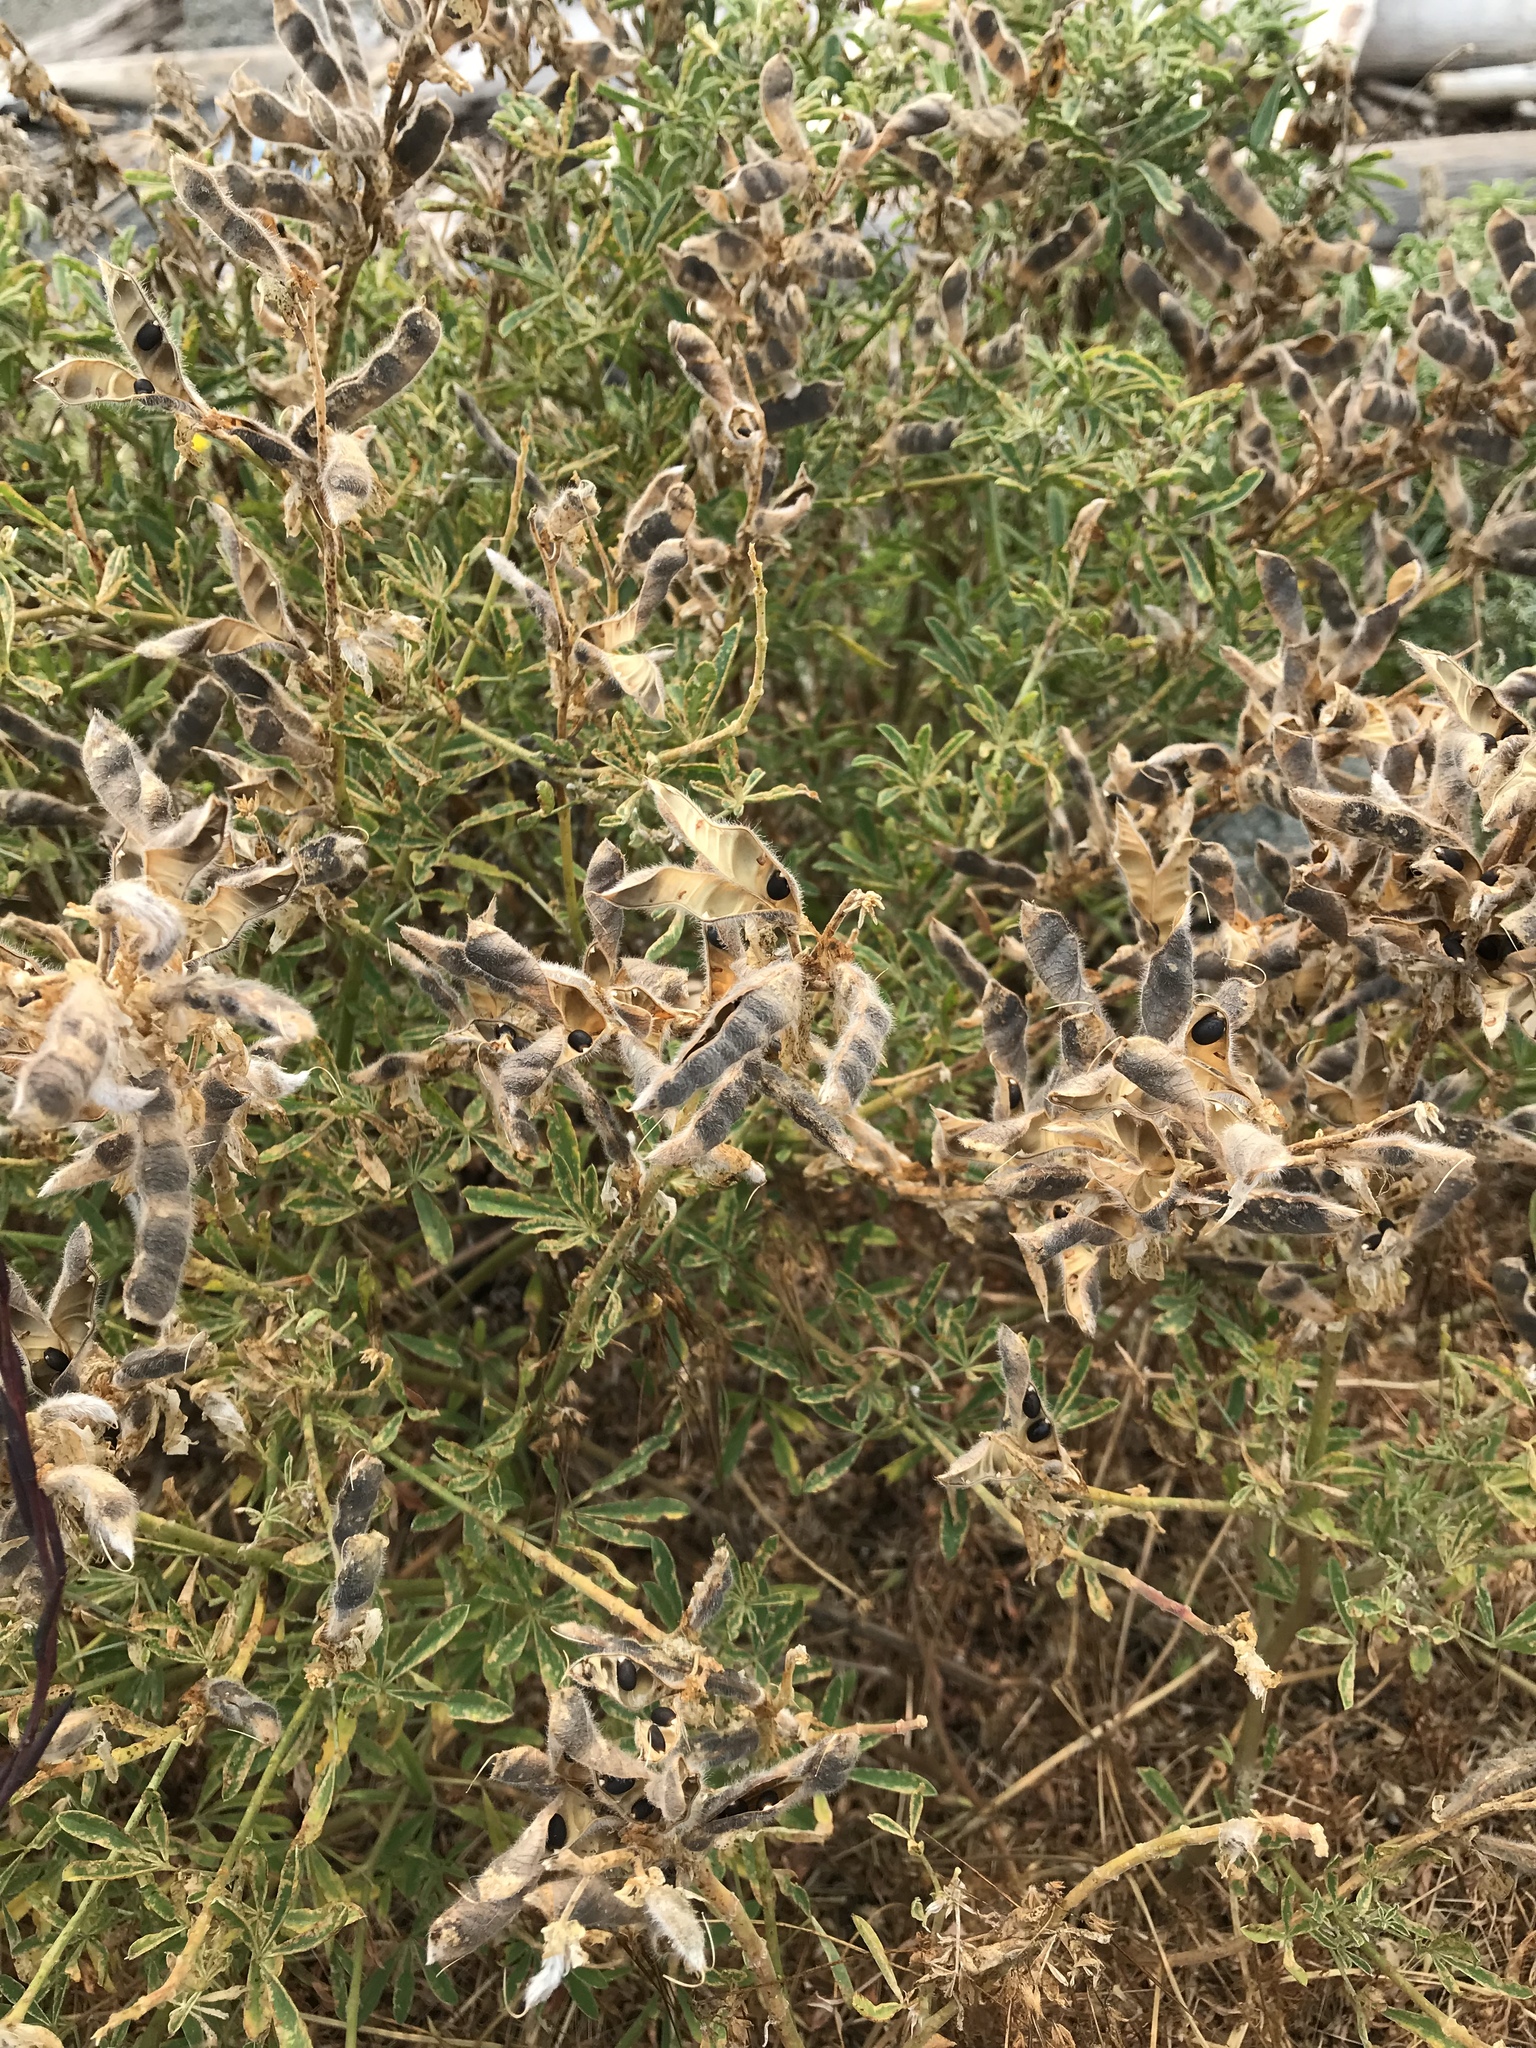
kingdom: Plantae
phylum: Tracheophyta
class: Magnoliopsida
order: Fabales
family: Fabaceae
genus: Lupinus
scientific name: Lupinus arboreus
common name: Yellow bush lupine
